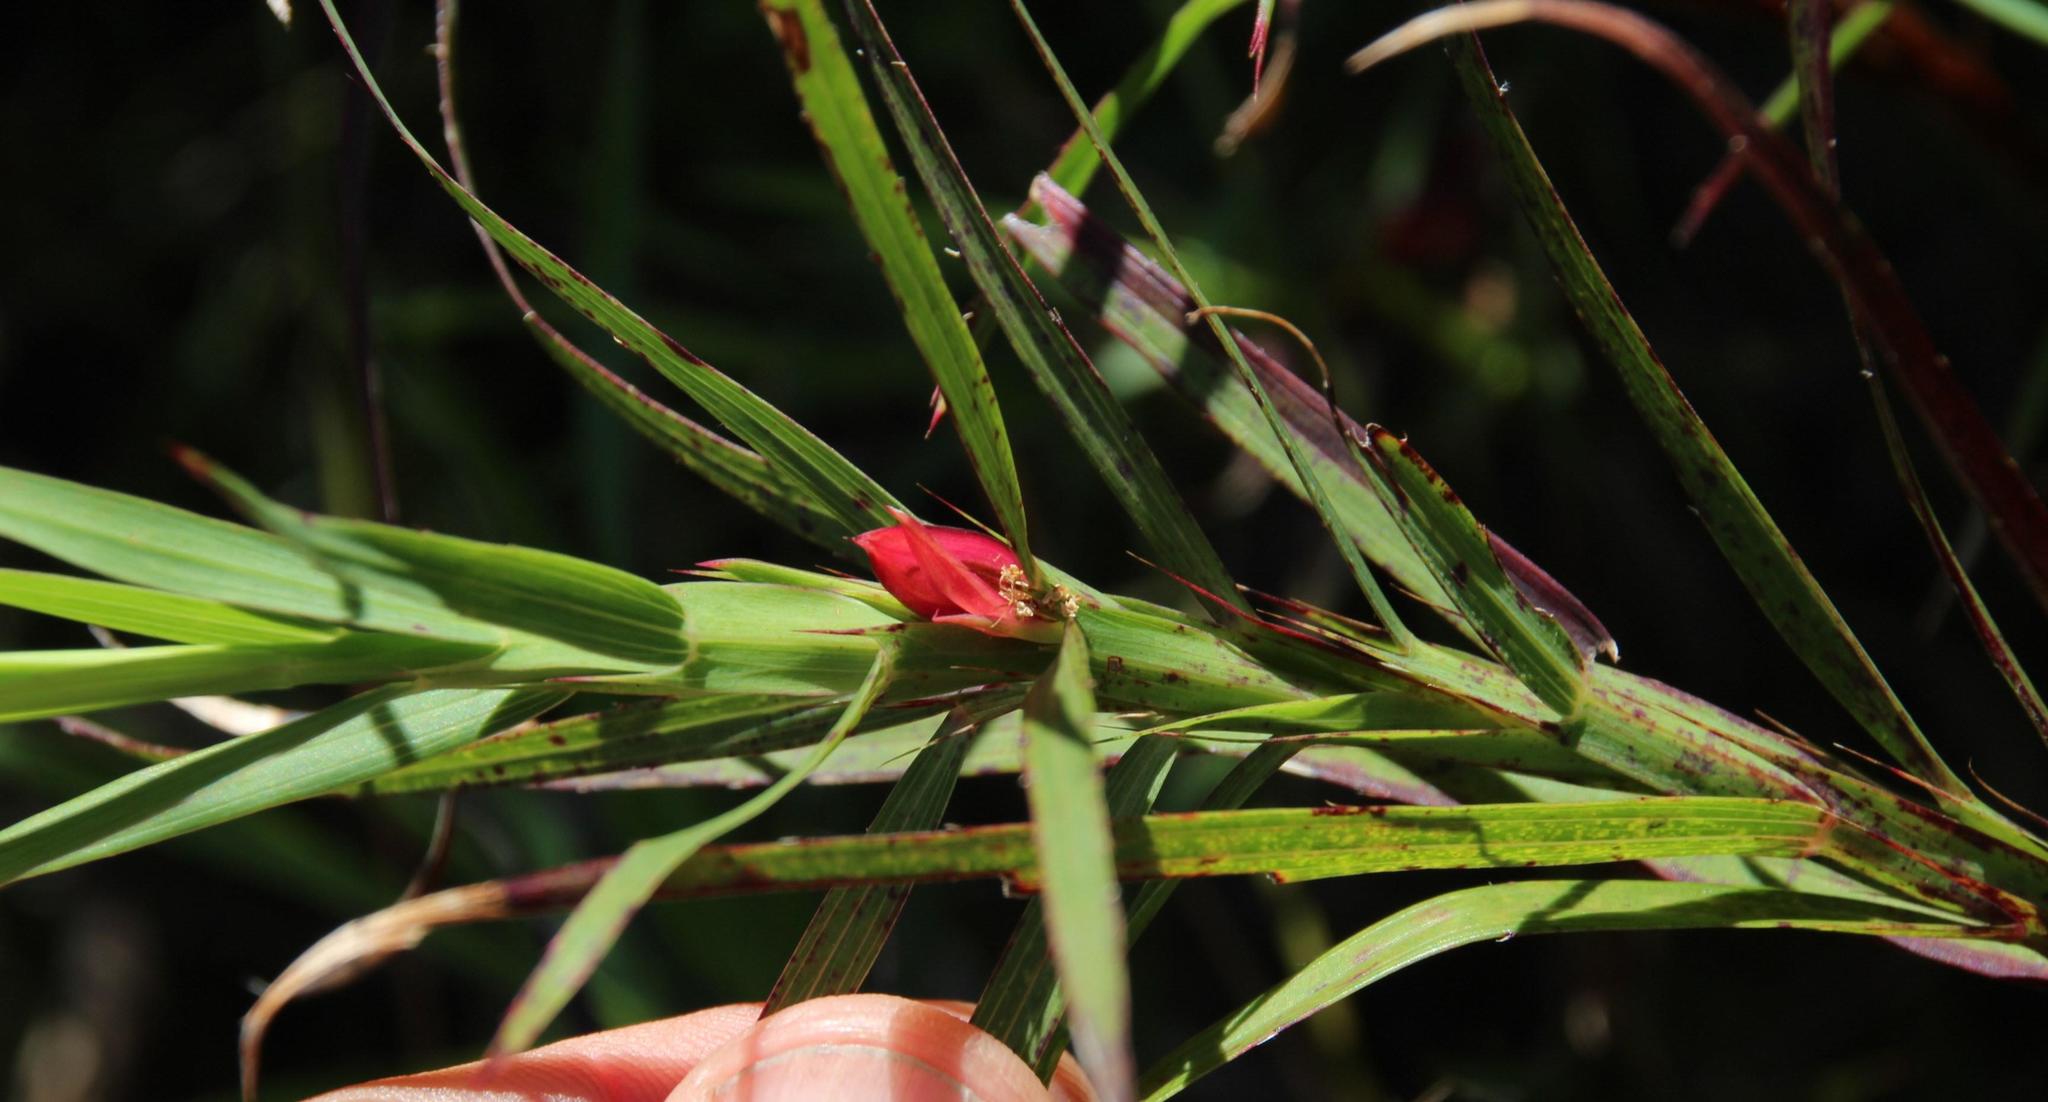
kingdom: Plantae
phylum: Tracheophyta
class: Magnoliopsida
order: Rosales
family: Rosaceae
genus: Cliffortia
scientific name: Cliffortia graminea
